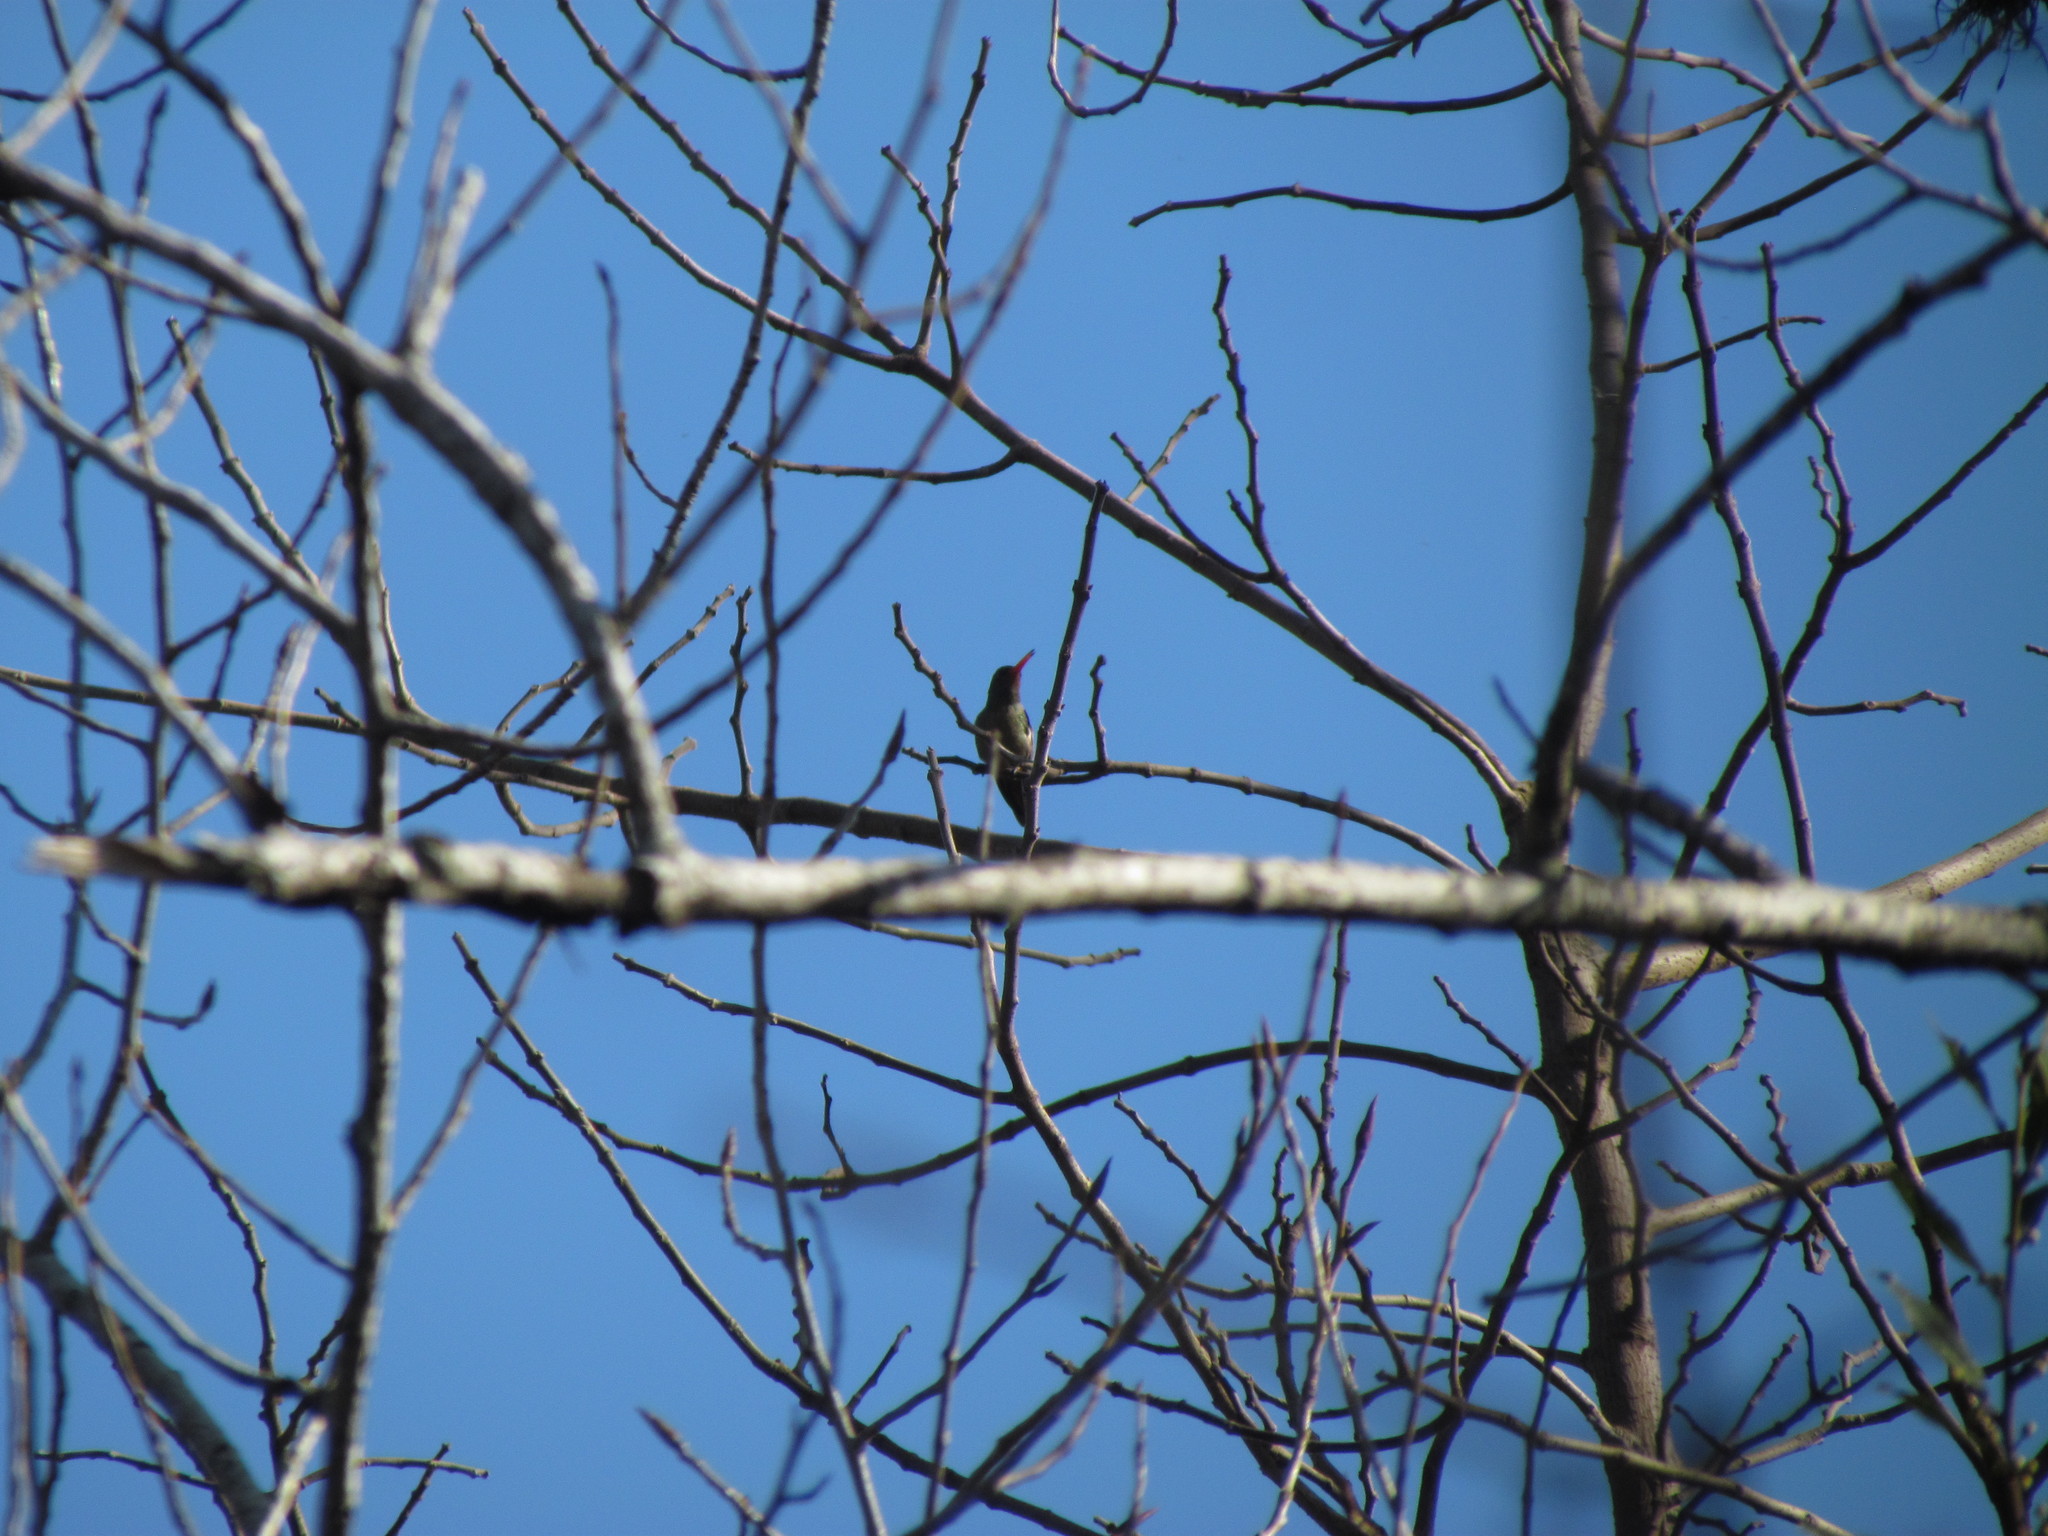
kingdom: Animalia
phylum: Chordata
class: Aves
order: Apodiformes
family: Trochilidae
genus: Hylocharis
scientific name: Hylocharis chrysura
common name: Gilded sapphire
